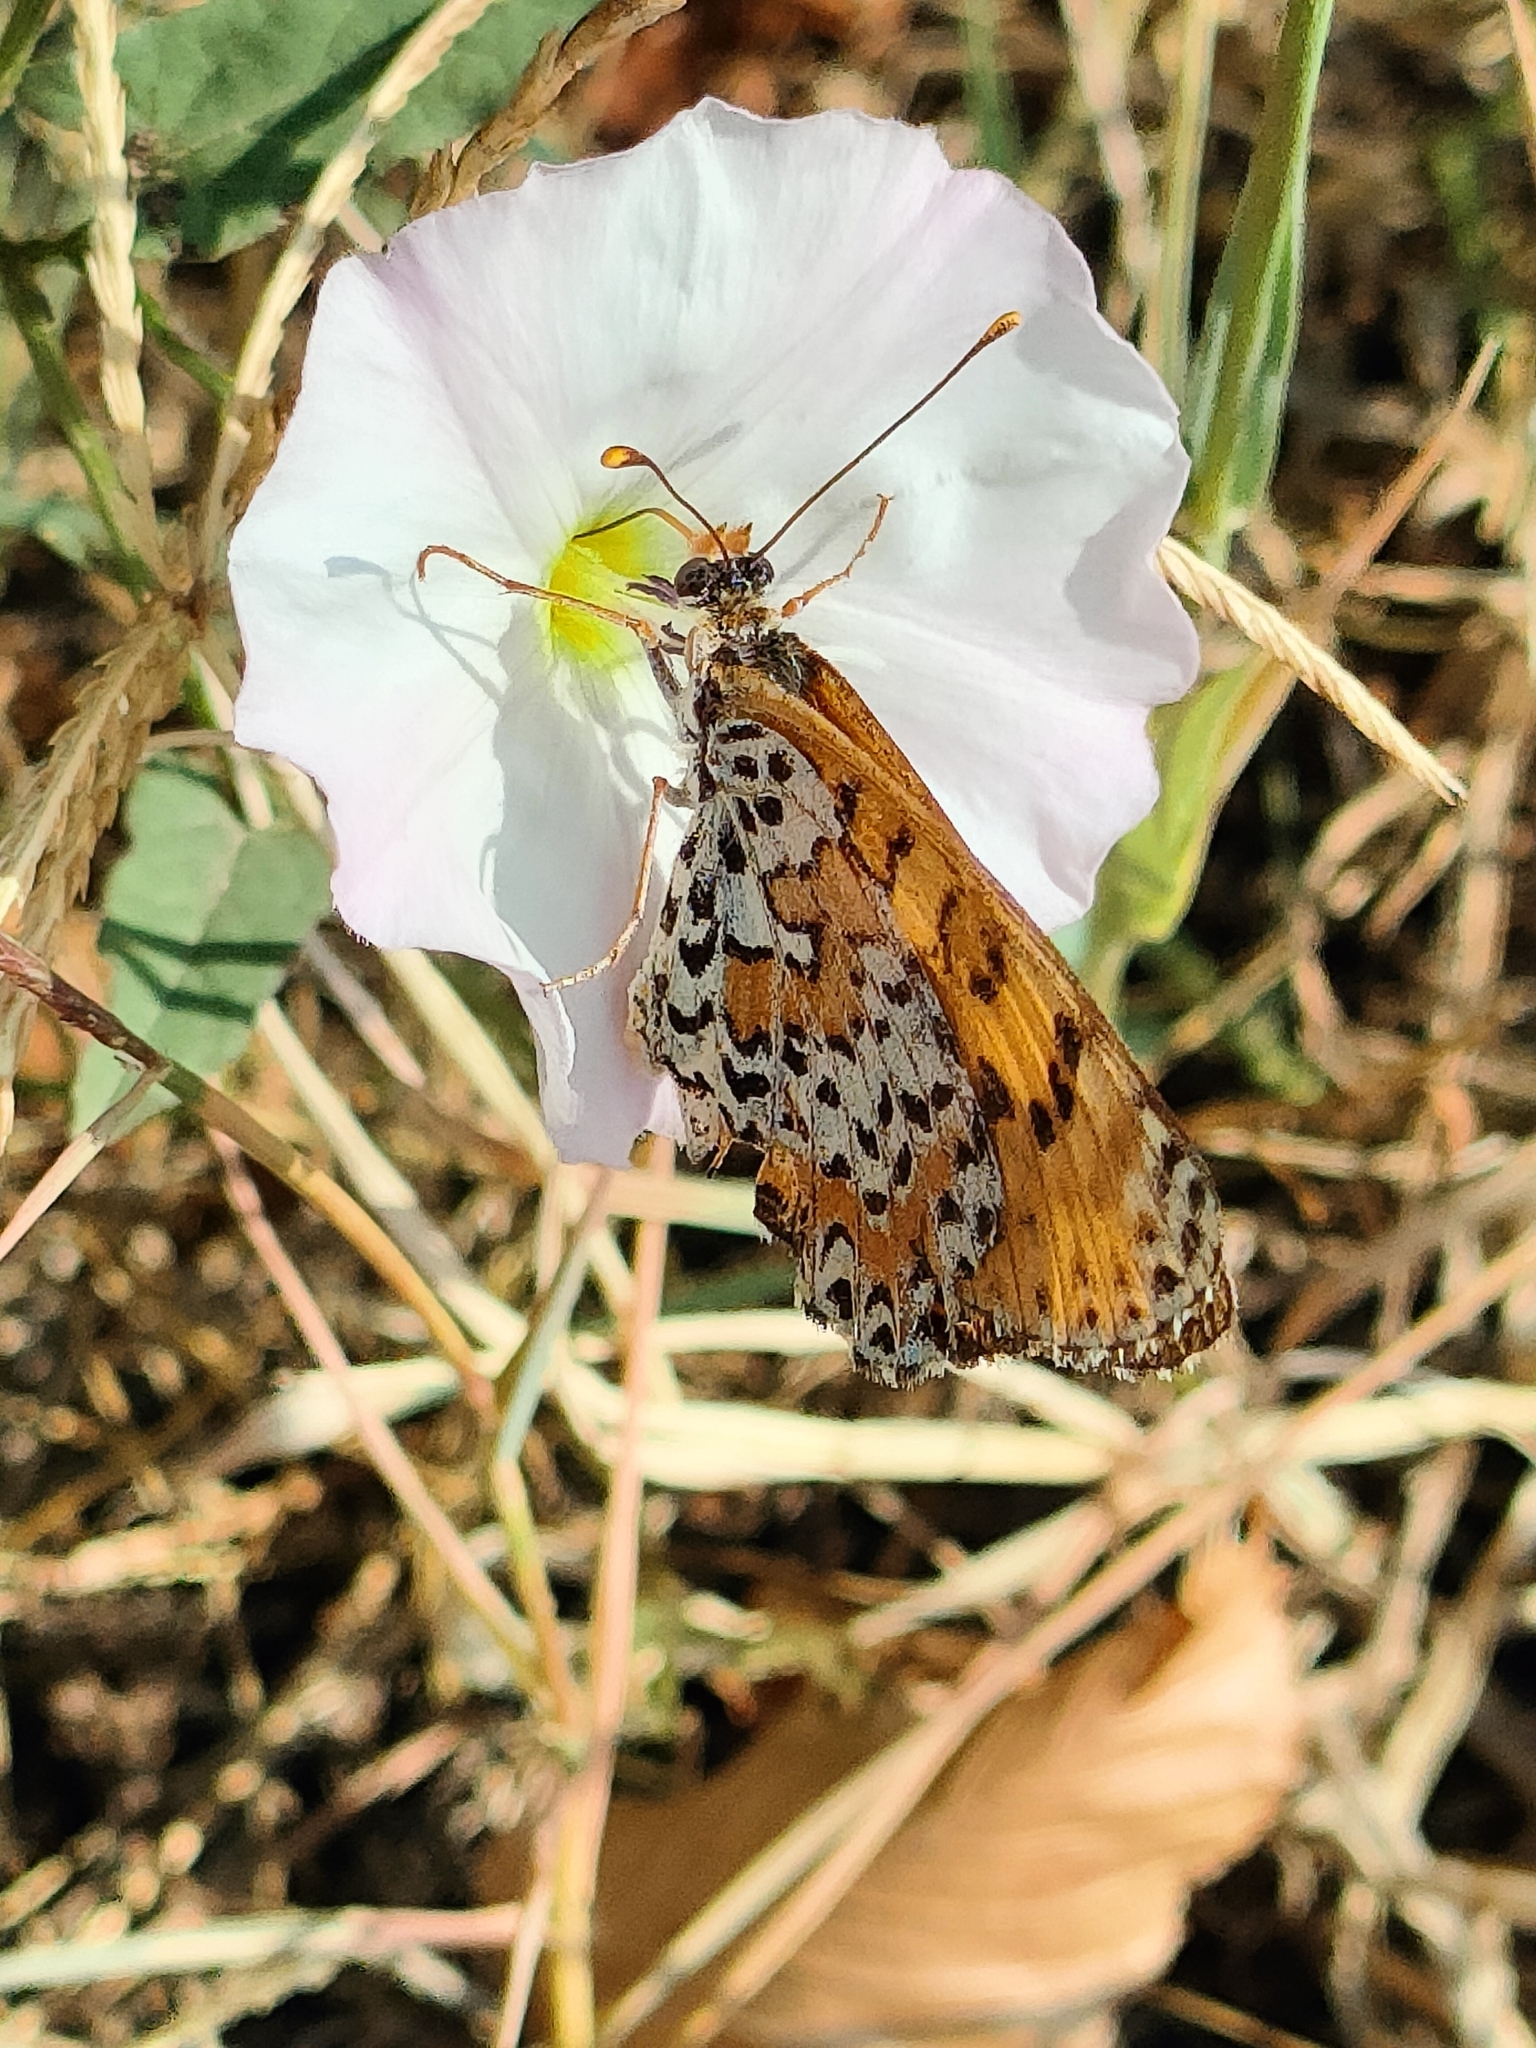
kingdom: Animalia
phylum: Arthropoda
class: Insecta
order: Lepidoptera
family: Nymphalidae
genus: Melitaea
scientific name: Melitaea didyma
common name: Spotted fritillary
